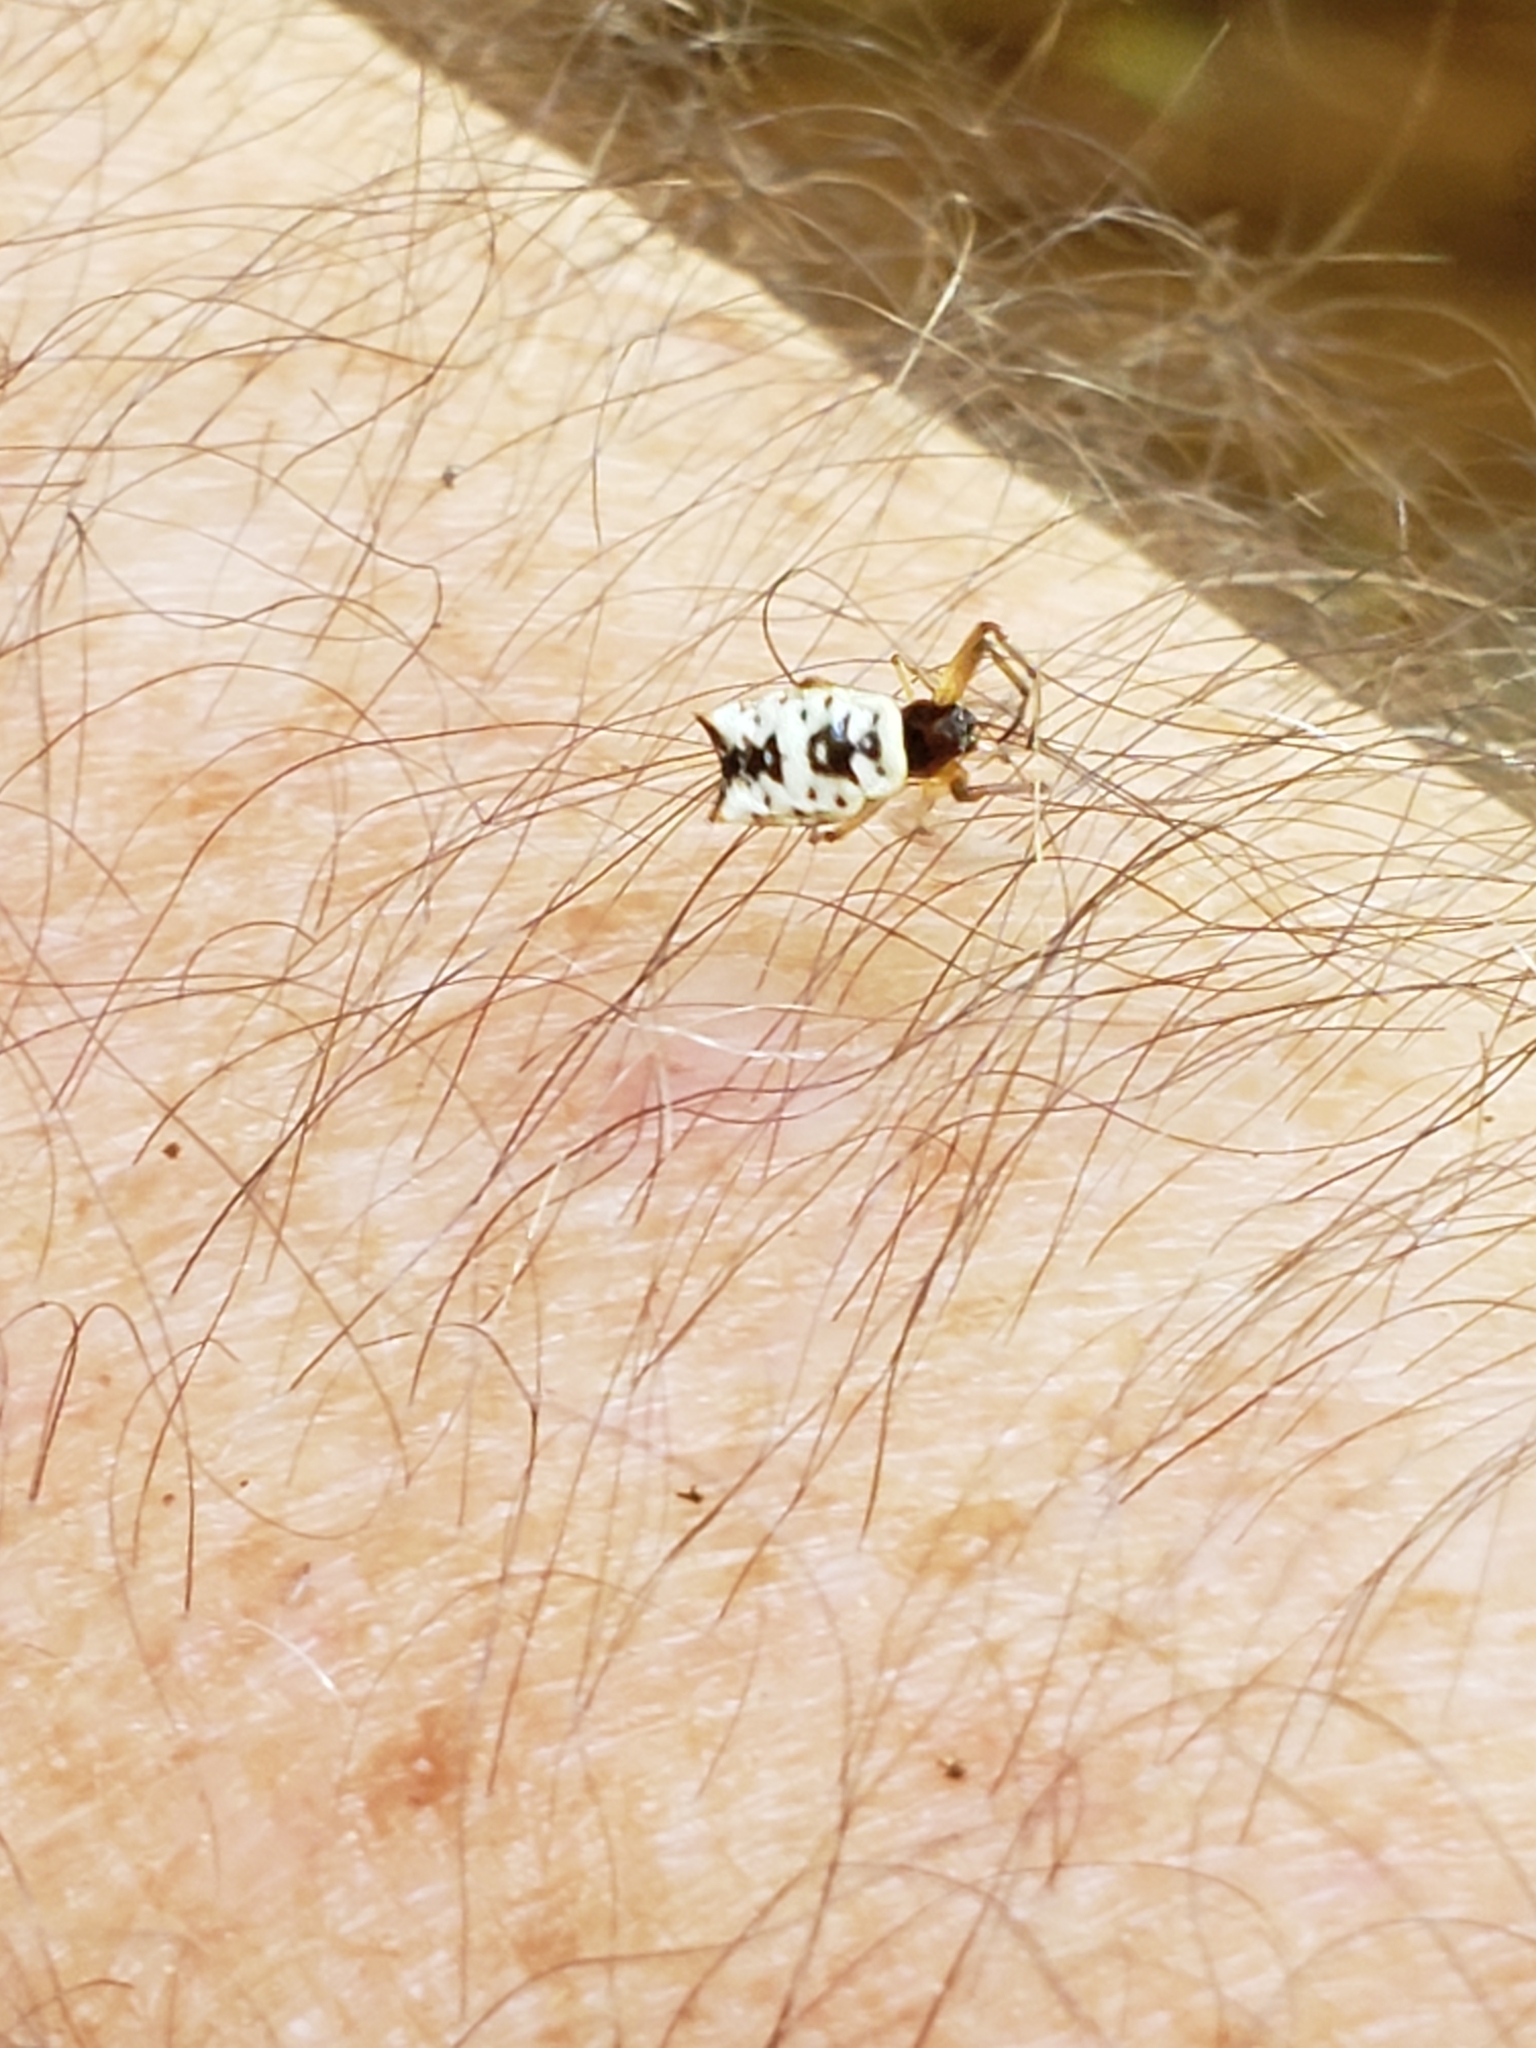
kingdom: Animalia
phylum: Arthropoda
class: Arachnida
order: Araneae
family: Araneidae
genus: Micrathena
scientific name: Micrathena mitrata
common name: Orb weavers
